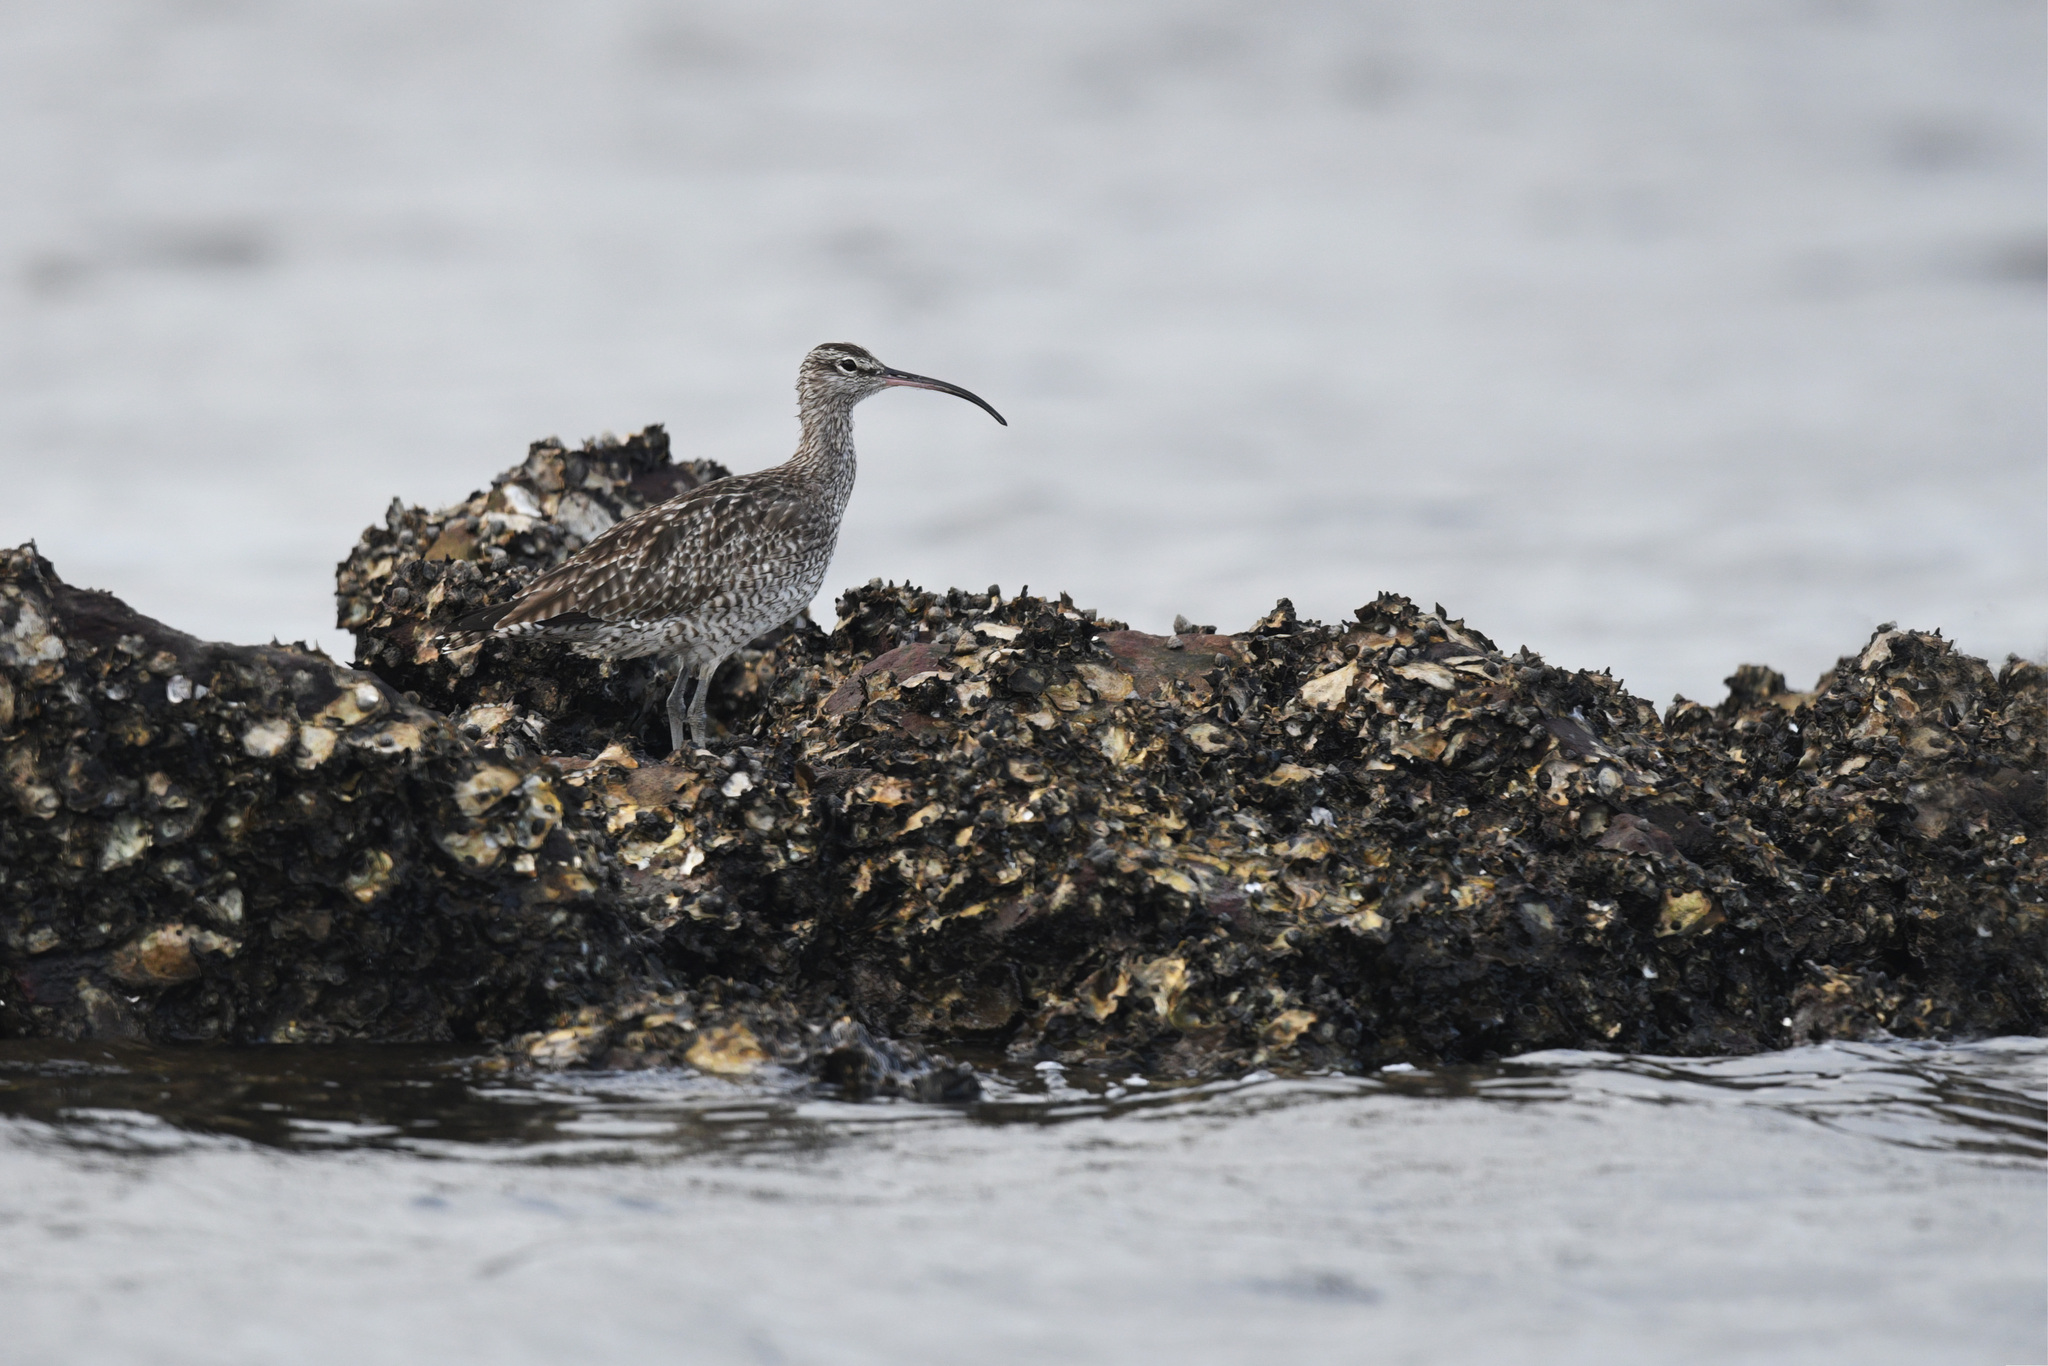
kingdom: Animalia
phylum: Chordata
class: Aves
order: Charadriiformes
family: Scolopacidae
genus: Numenius
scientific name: Numenius phaeopus
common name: Whimbrel
